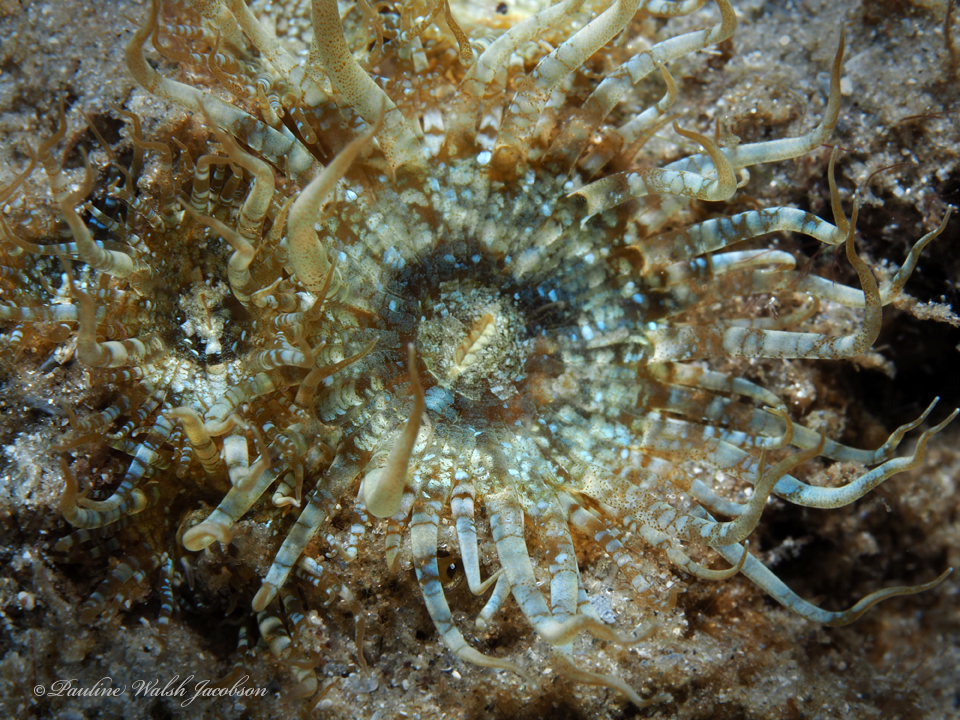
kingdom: Animalia
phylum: Cnidaria
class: Anthozoa
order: Actiniaria
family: Aiptasiidae
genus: Exaiptasia
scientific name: Exaiptasia diaphana
